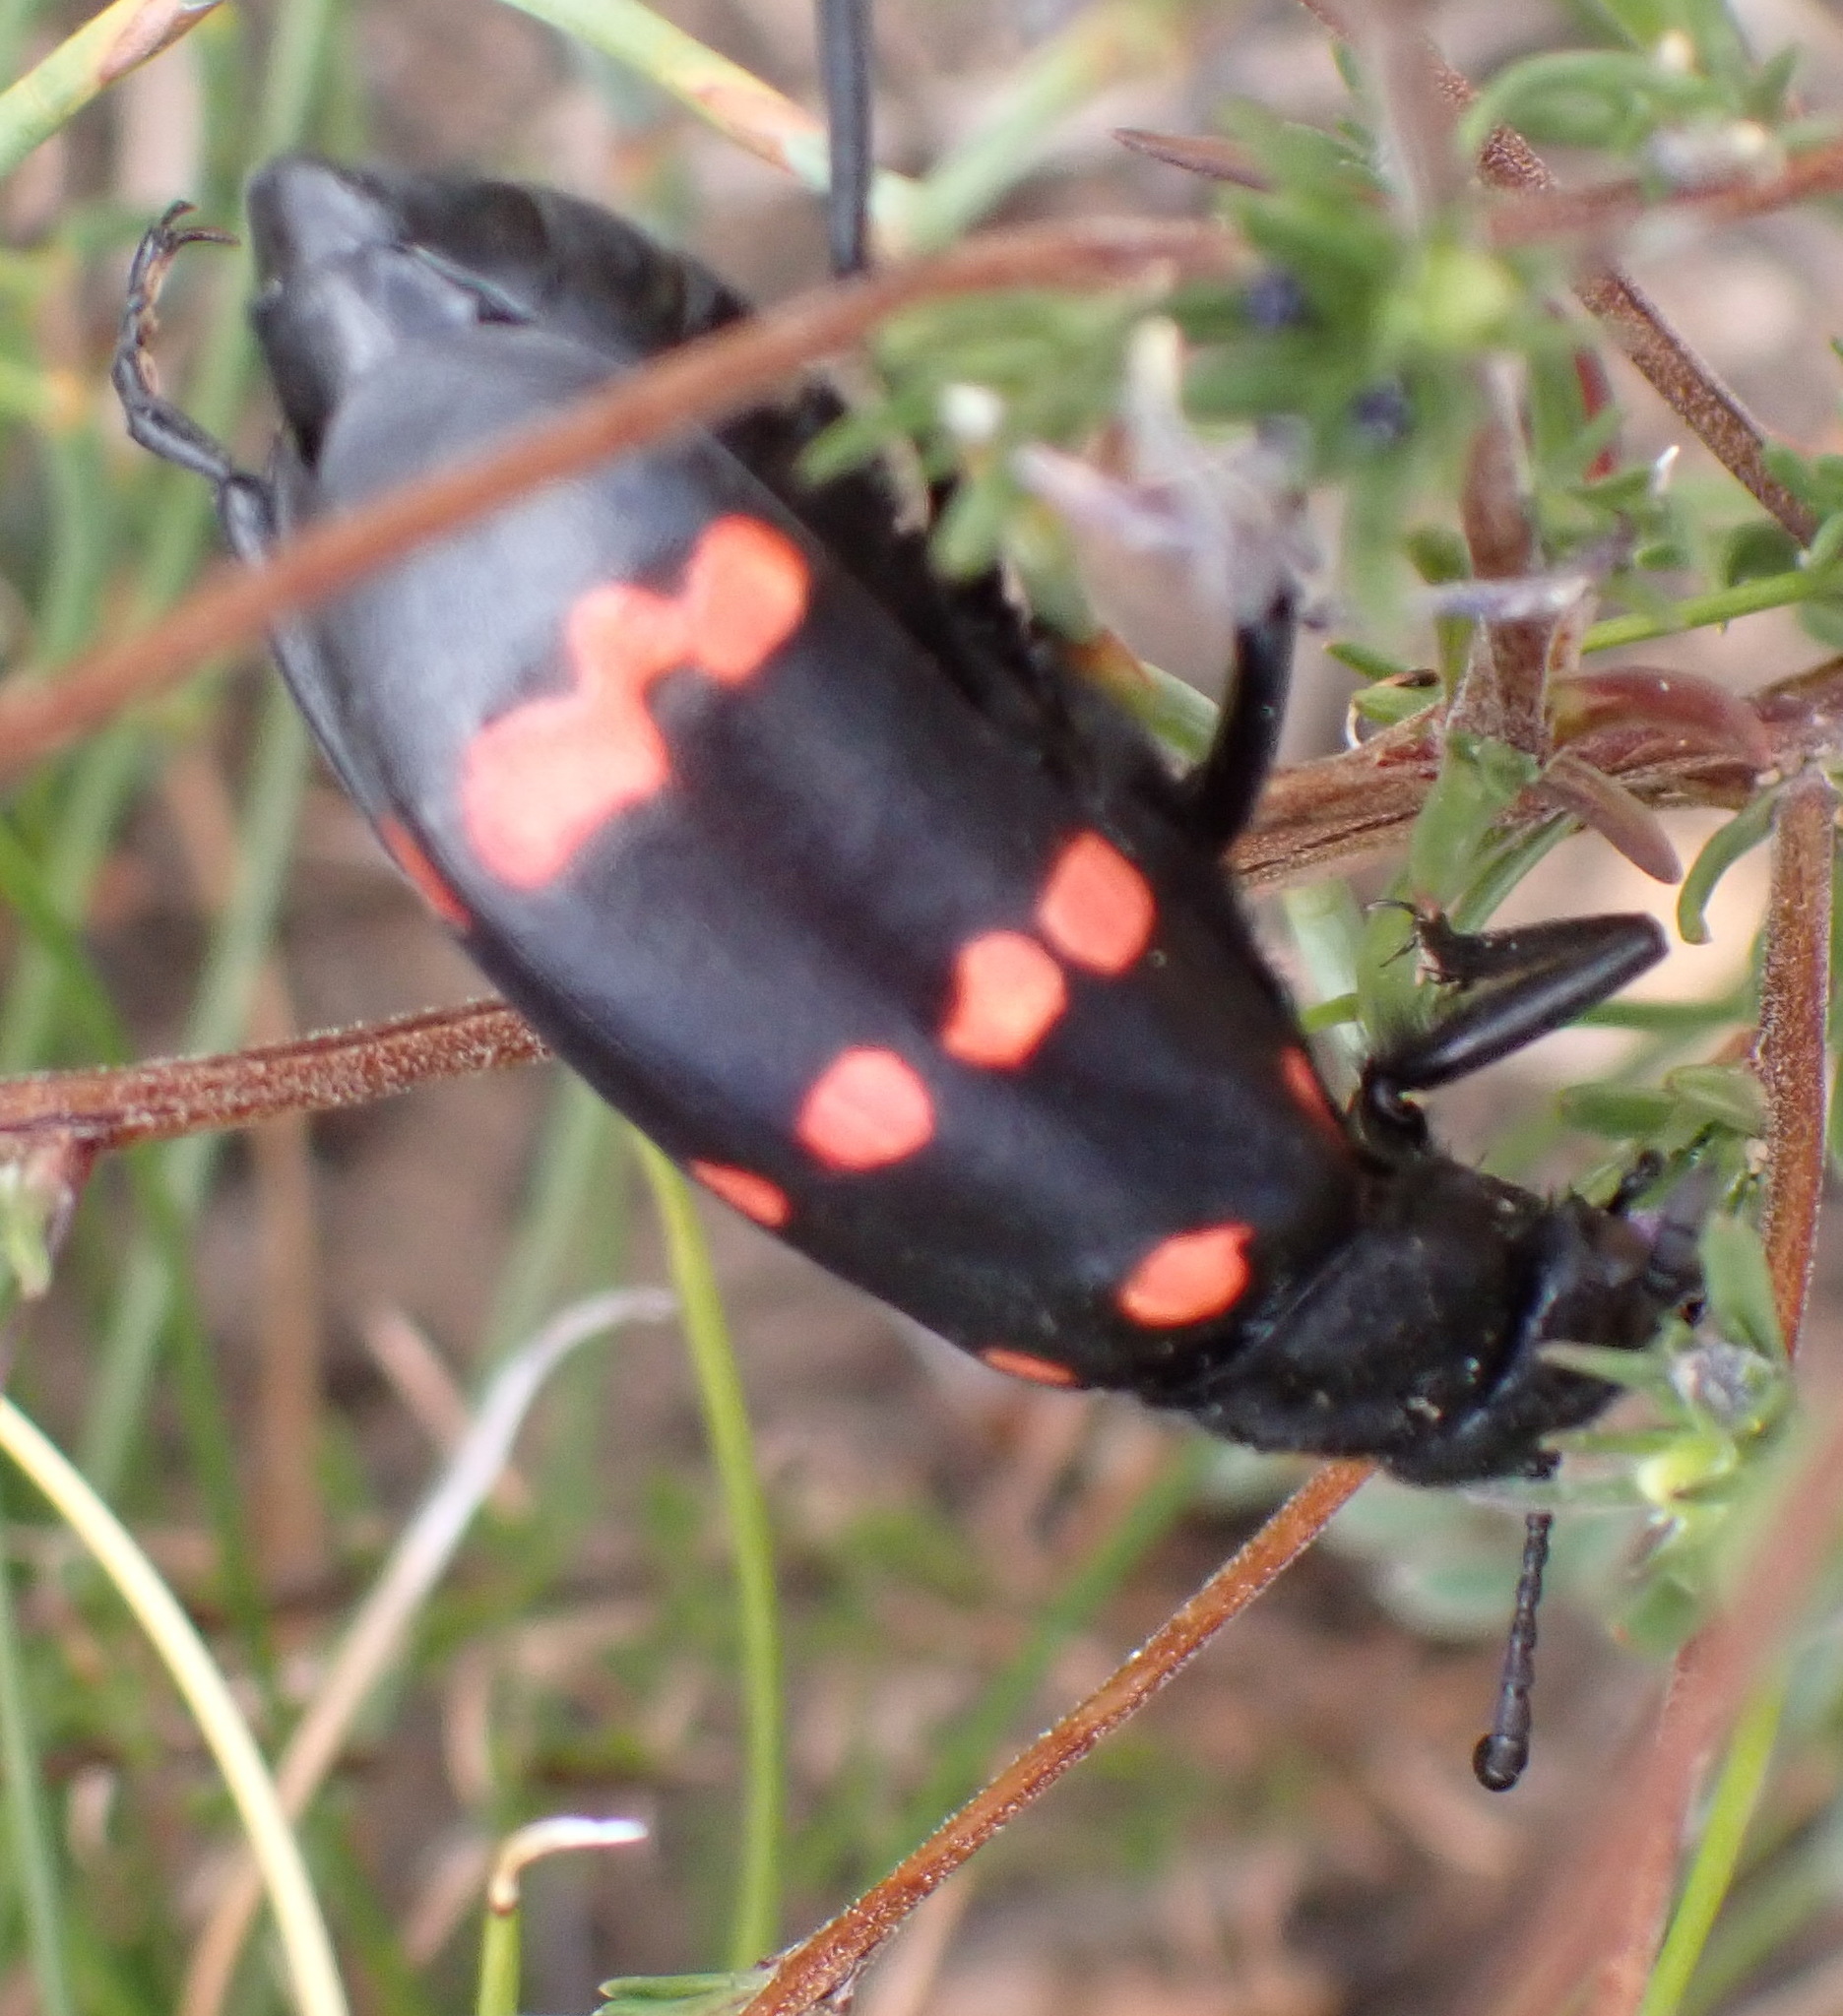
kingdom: Animalia
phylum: Arthropoda
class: Insecta
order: Coleoptera
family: Meloidae
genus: Hycleus
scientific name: Hycleus
